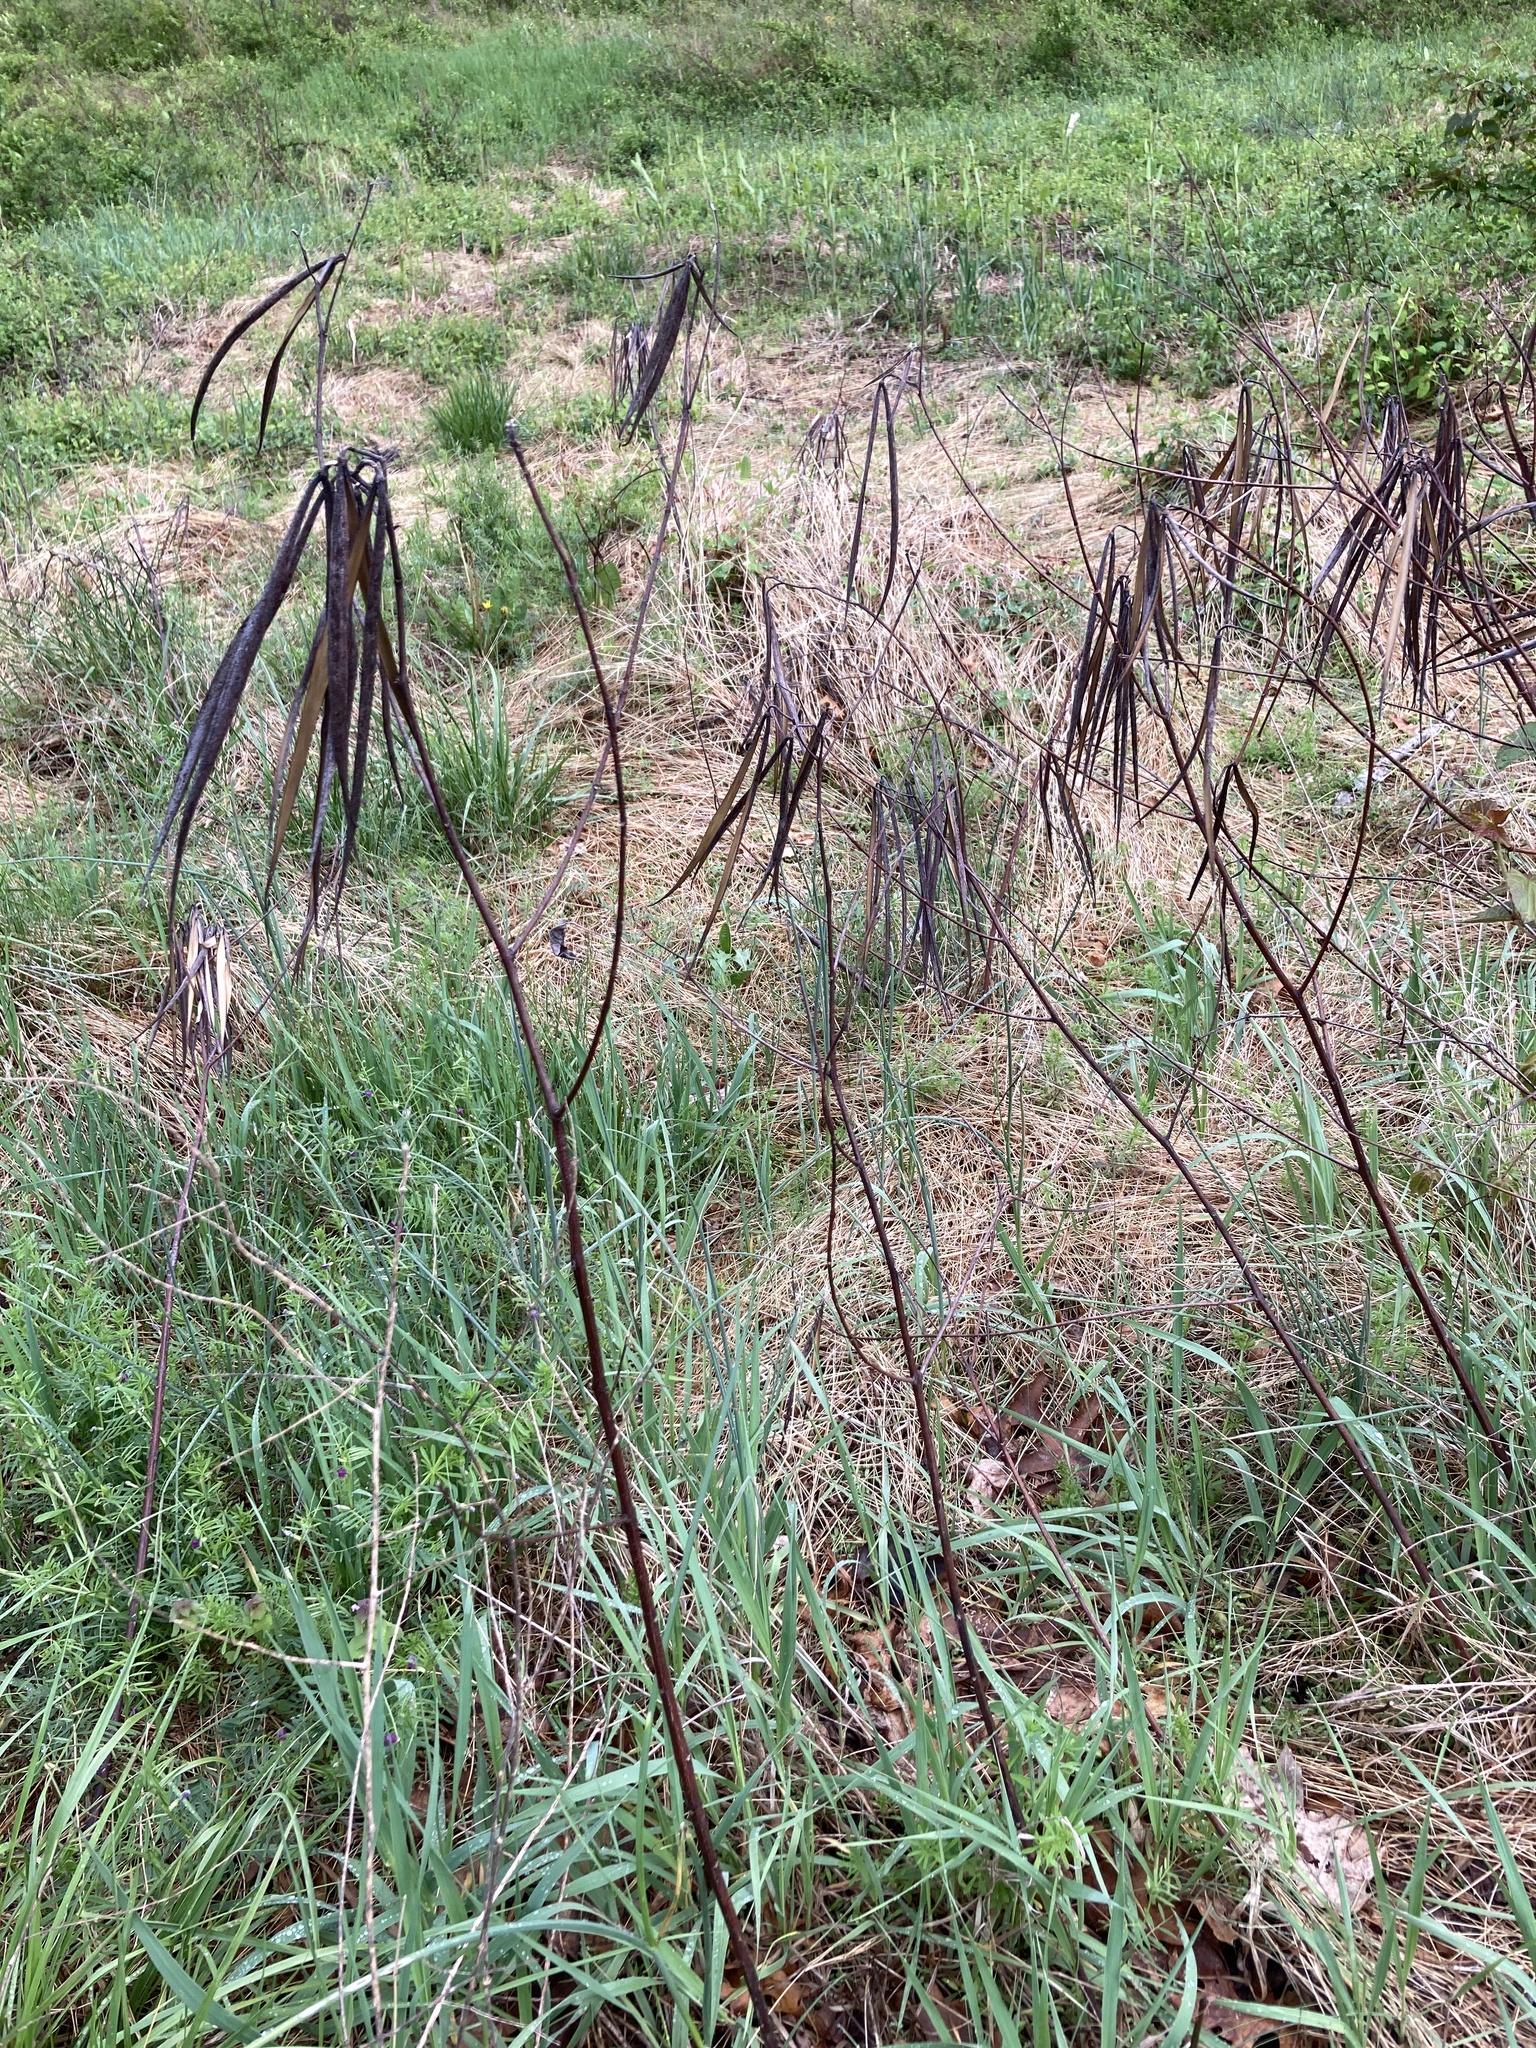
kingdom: Plantae
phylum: Tracheophyta
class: Magnoliopsida
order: Gentianales
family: Apocynaceae
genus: Apocynum
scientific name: Apocynum cannabinum
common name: Hemp dogbane
